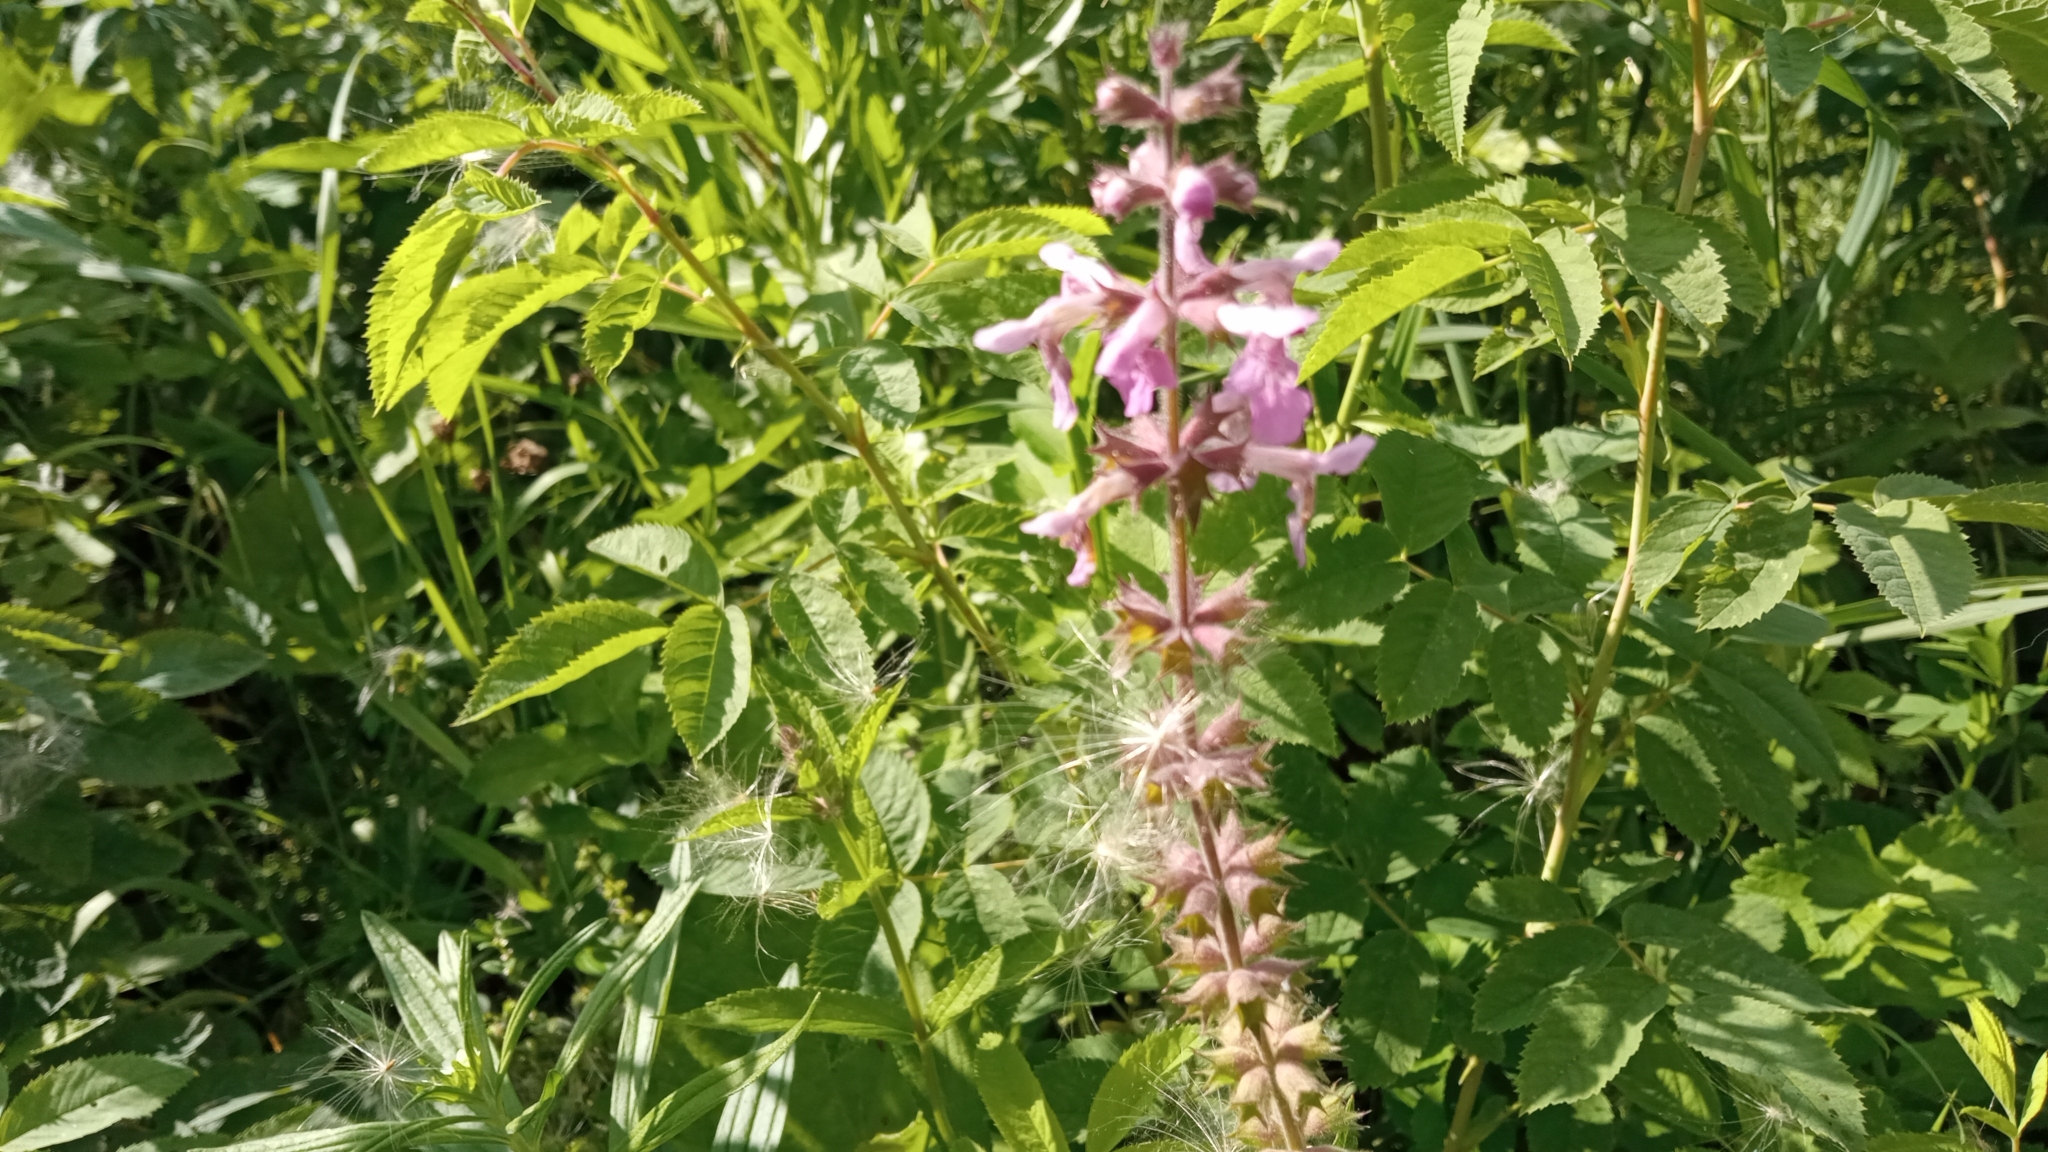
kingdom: Plantae
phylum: Tracheophyta
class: Magnoliopsida
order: Lamiales
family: Lamiaceae
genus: Stachys
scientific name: Stachys palustris
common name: Marsh woundwort
